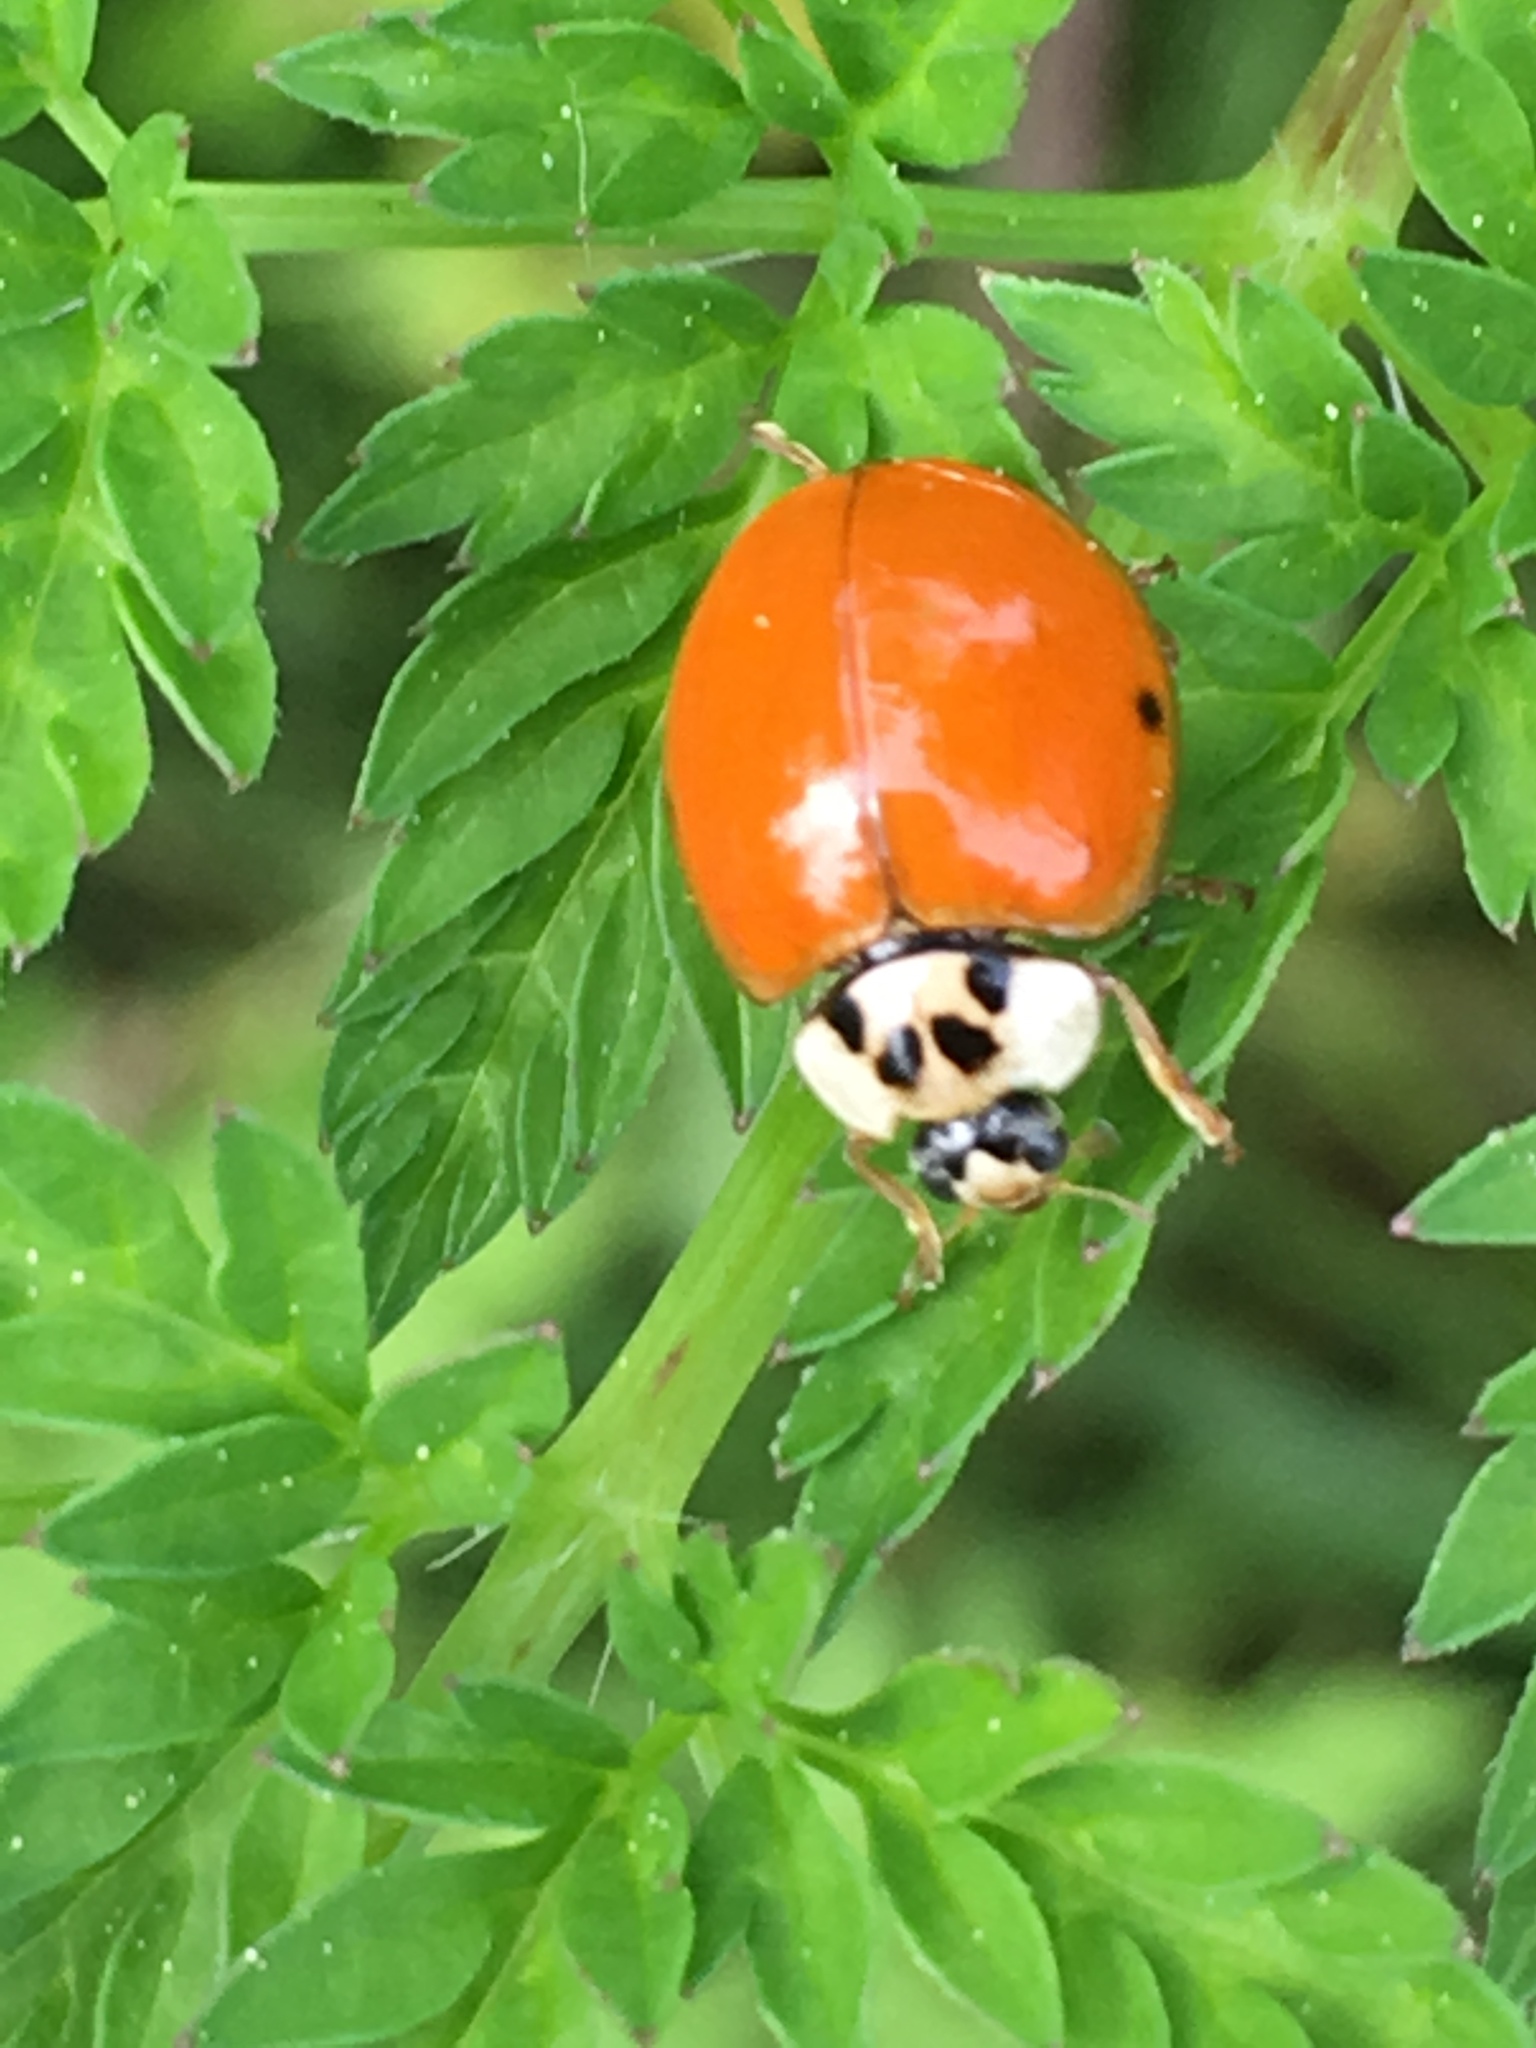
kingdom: Animalia
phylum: Arthropoda
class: Insecta
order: Coleoptera
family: Coccinellidae
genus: Harmonia
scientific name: Harmonia axyridis
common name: Harlequin ladybird
